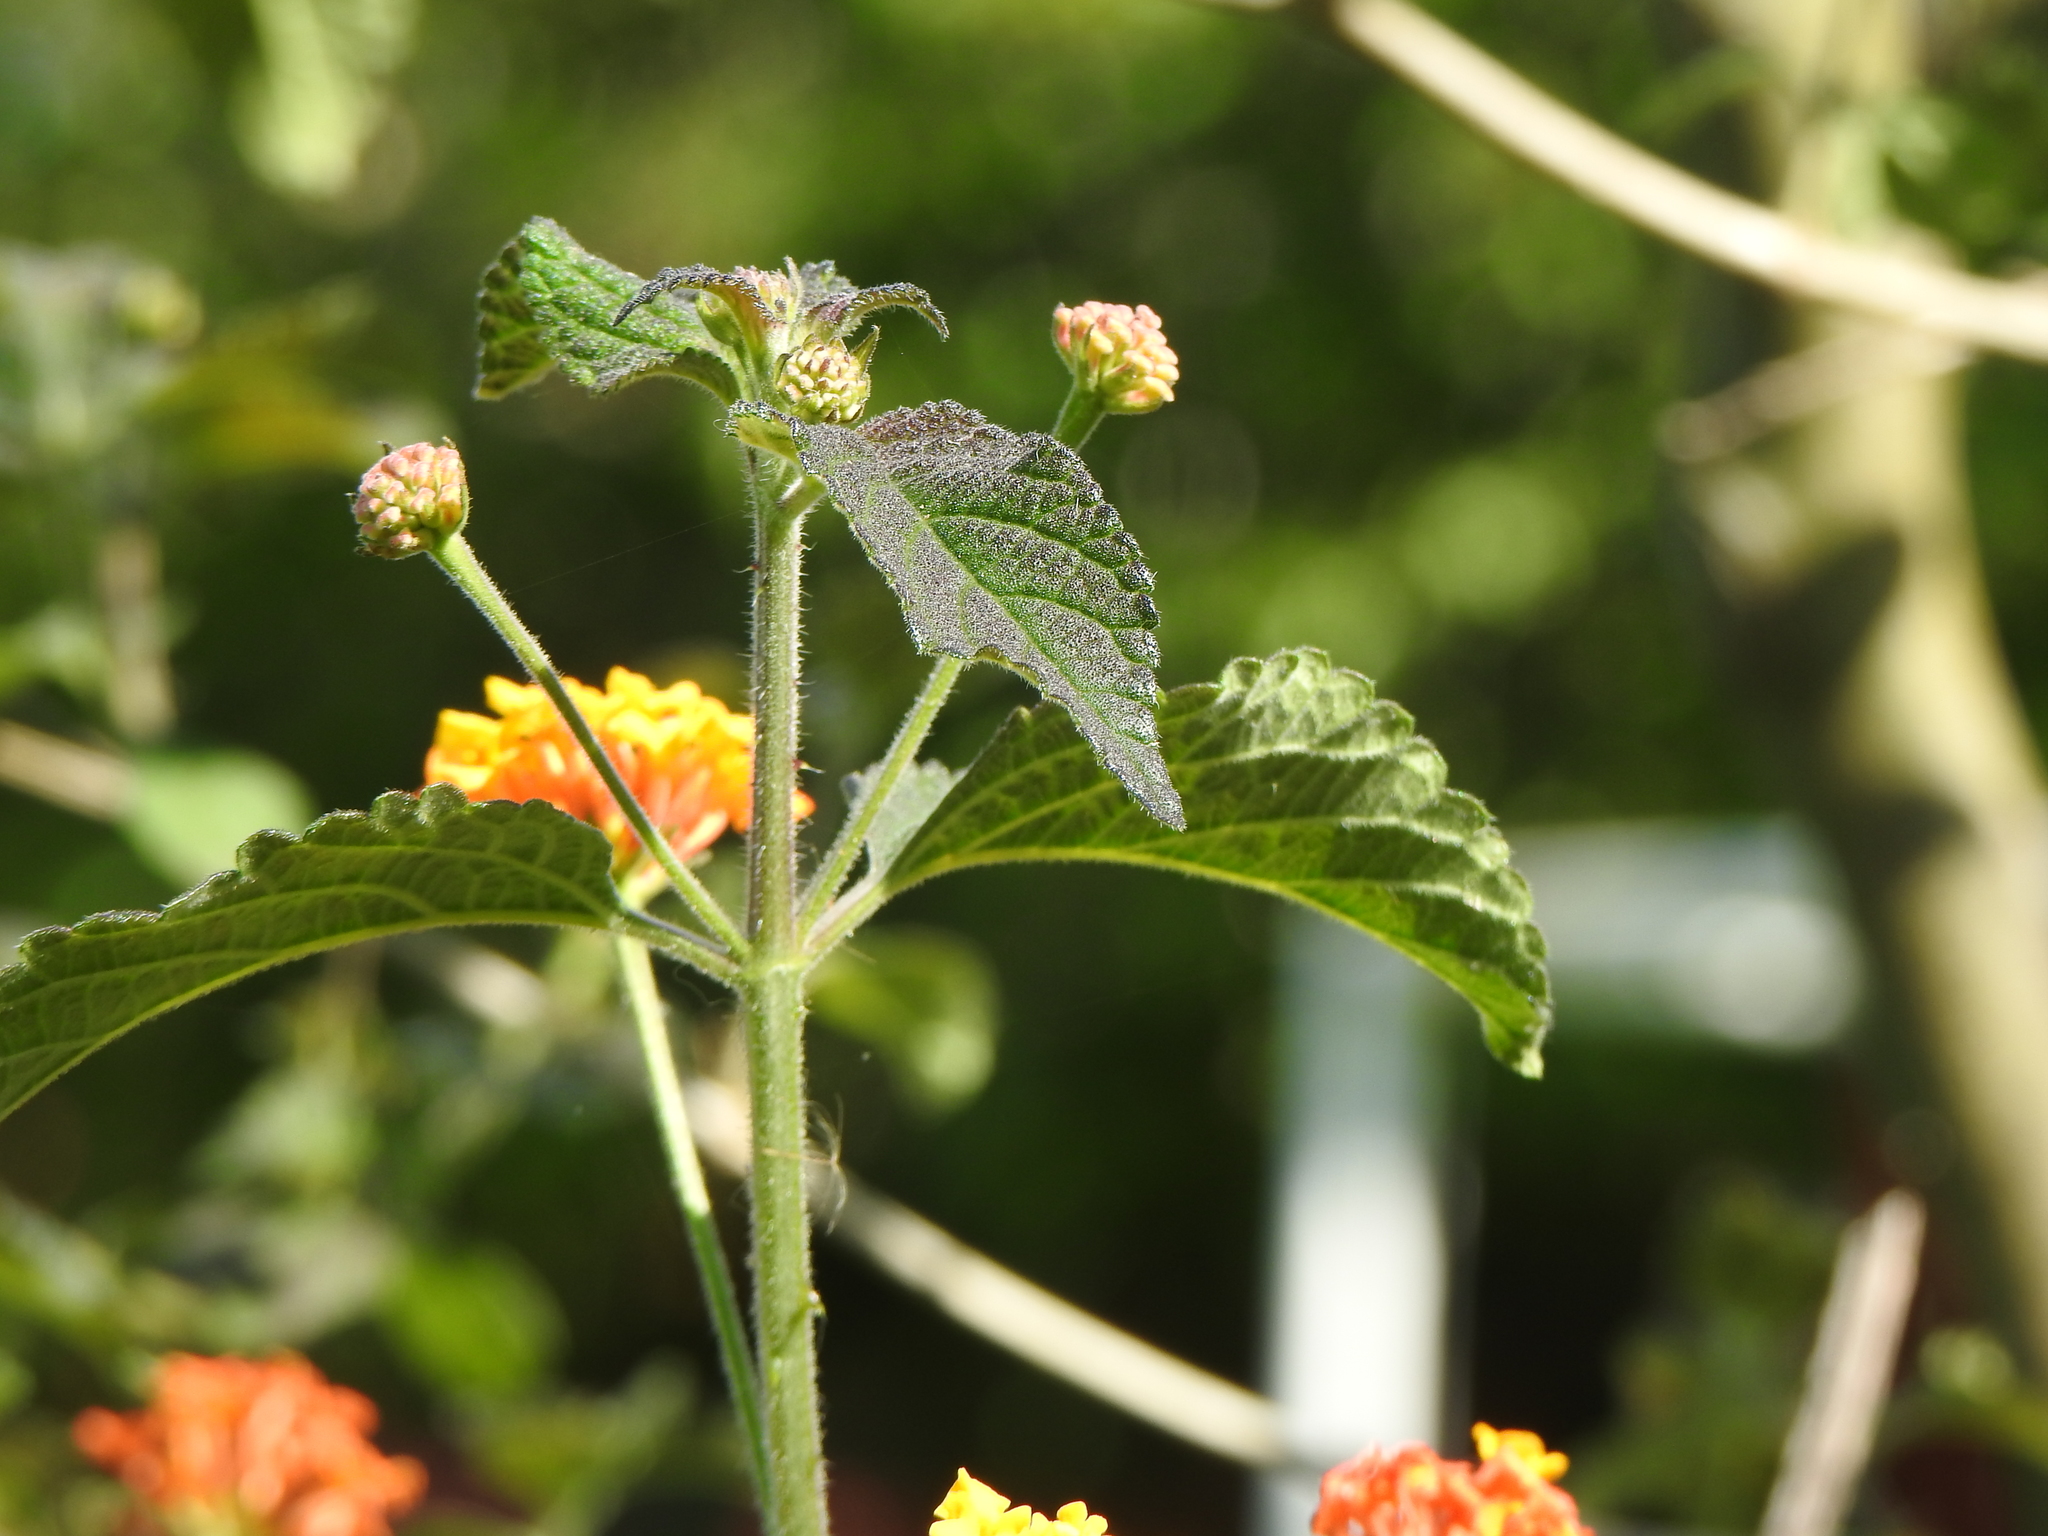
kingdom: Plantae
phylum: Tracheophyta
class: Magnoliopsida
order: Lamiales
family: Verbenaceae
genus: Lantana
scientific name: Lantana camara
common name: Lantana
